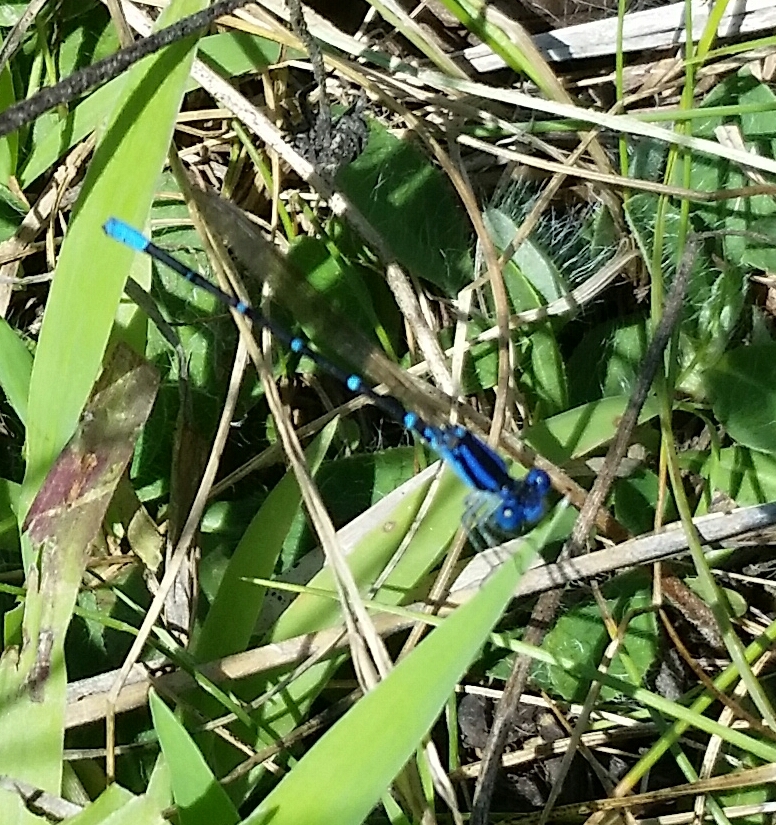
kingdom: Animalia
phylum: Arthropoda
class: Insecta
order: Odonata
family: Coenagrionidae
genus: Argia
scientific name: Argia sedula
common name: Blue-ringed dancer
